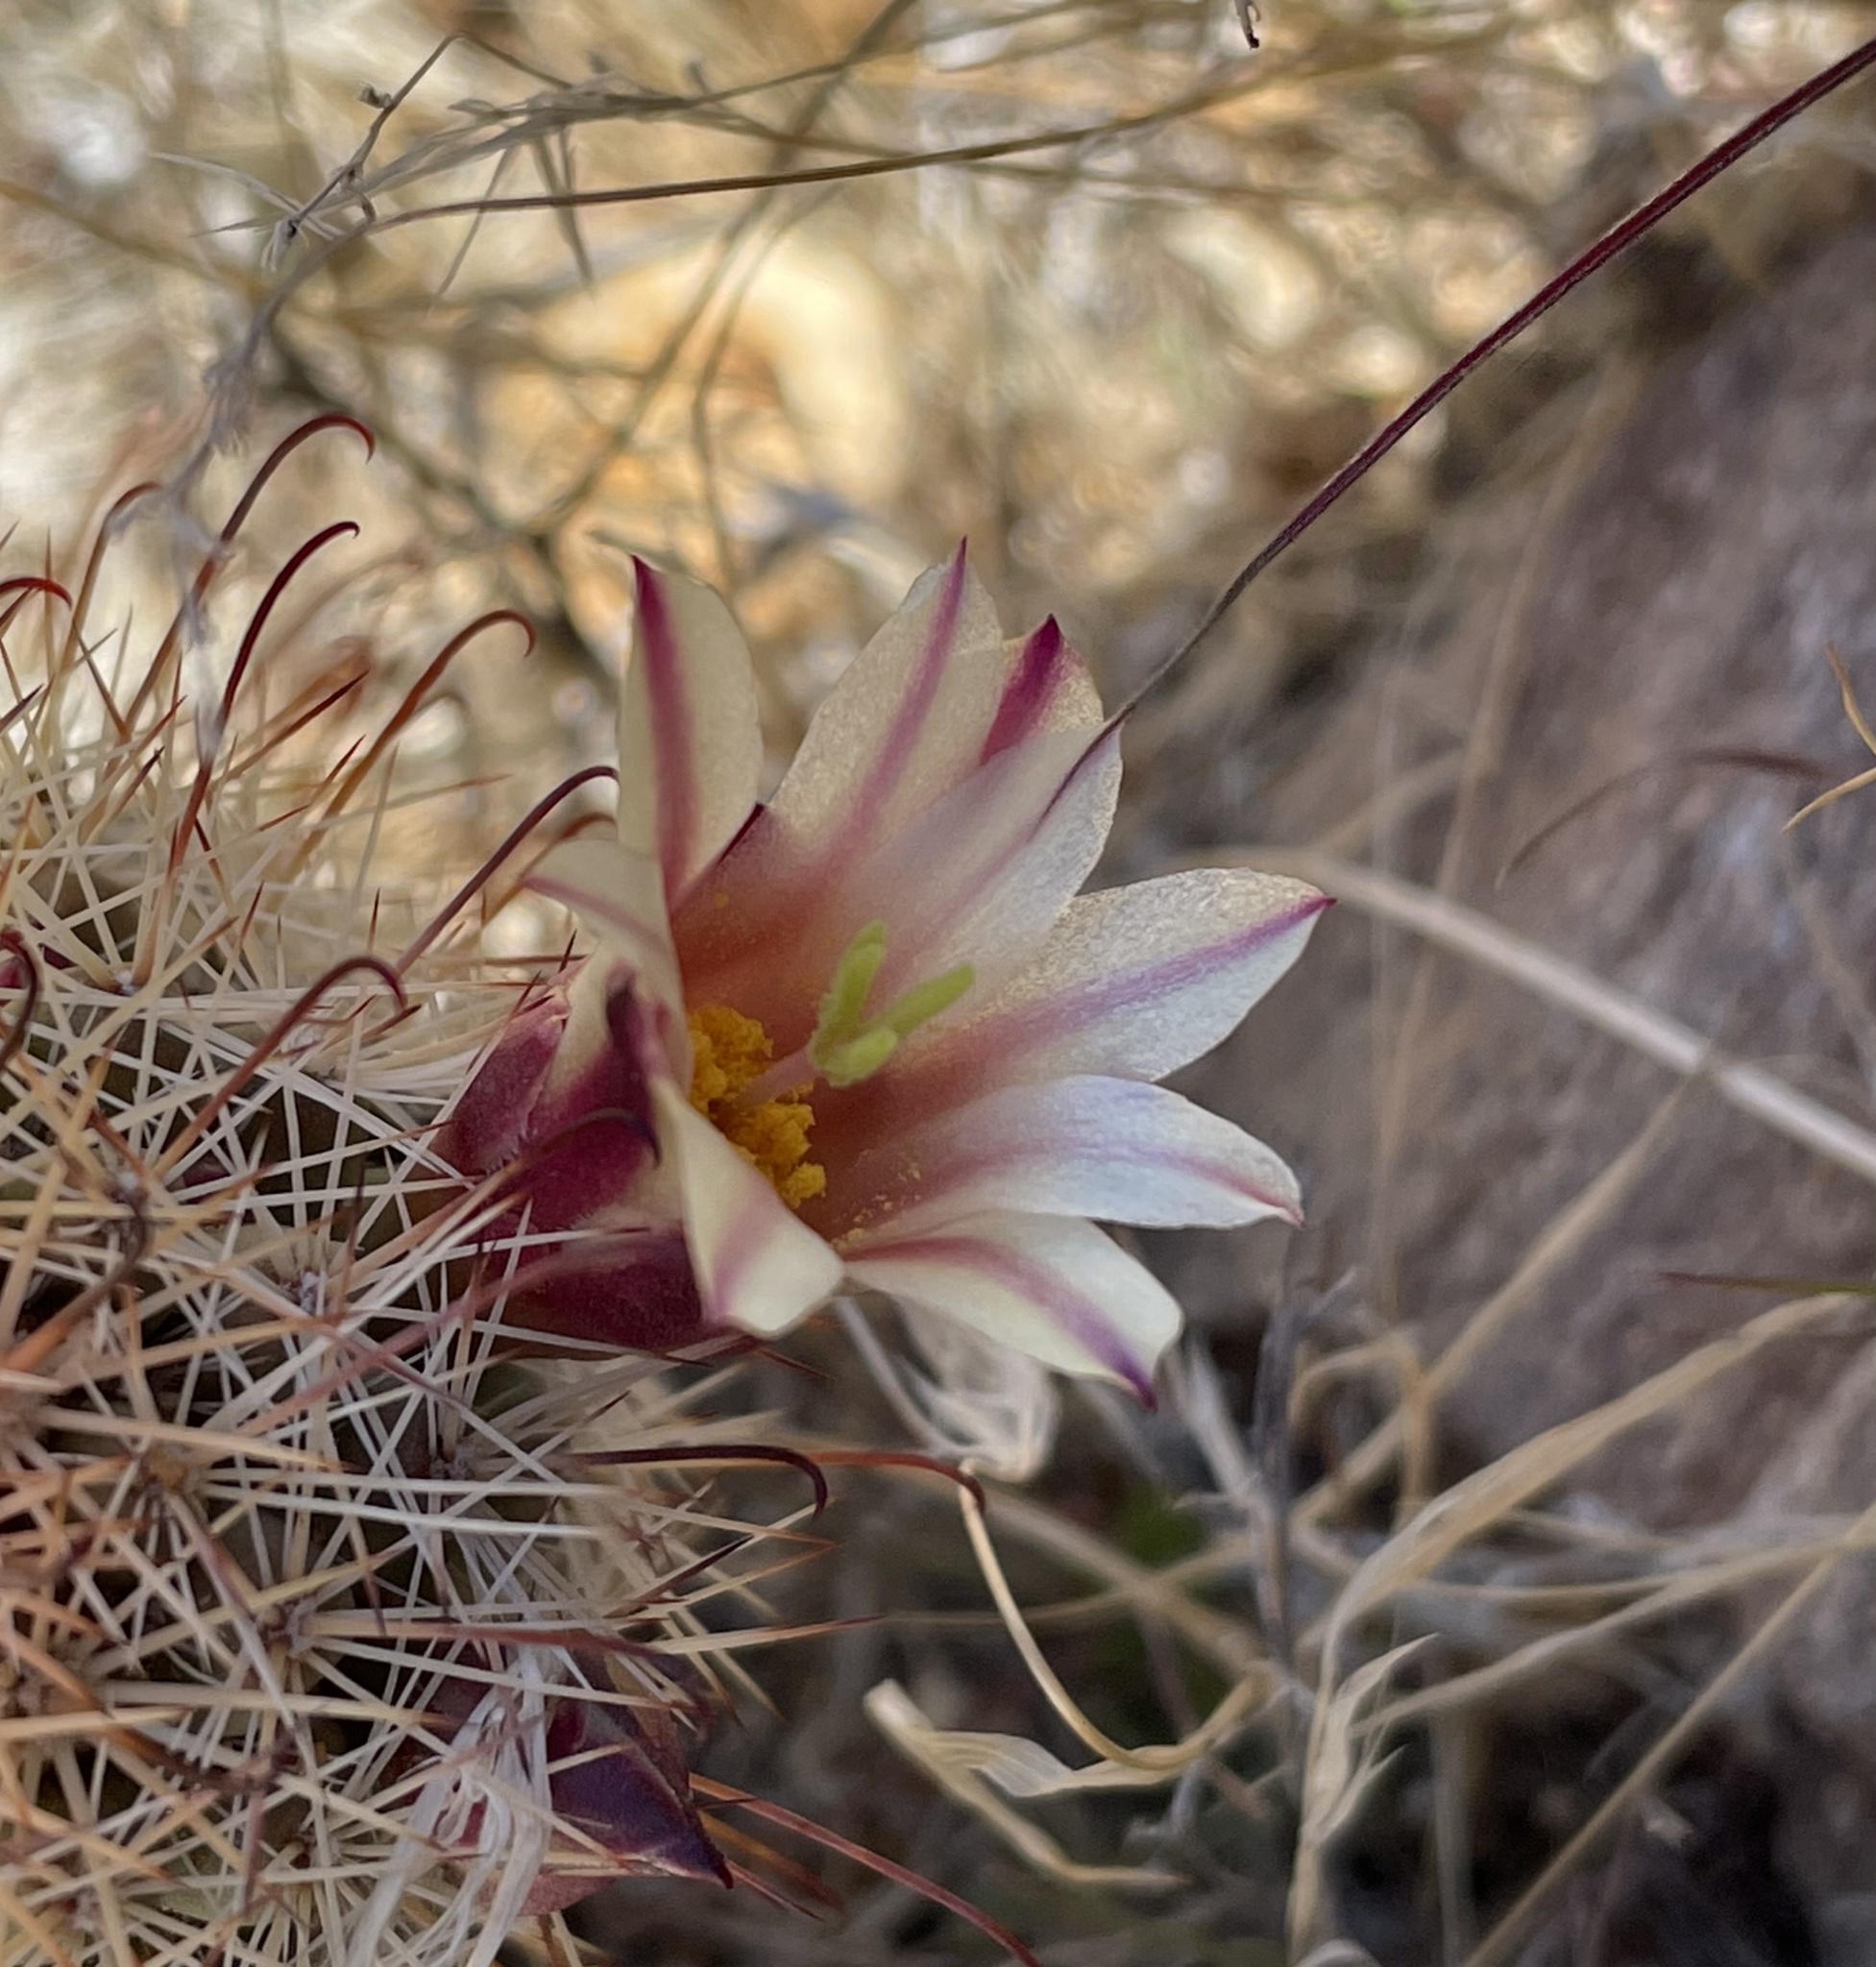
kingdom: Plantae
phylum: Tracheophyta
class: Magnoliopsida
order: Caryophyllales
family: Cactaceae
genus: Cochemiea
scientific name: Cochemiea dioica
